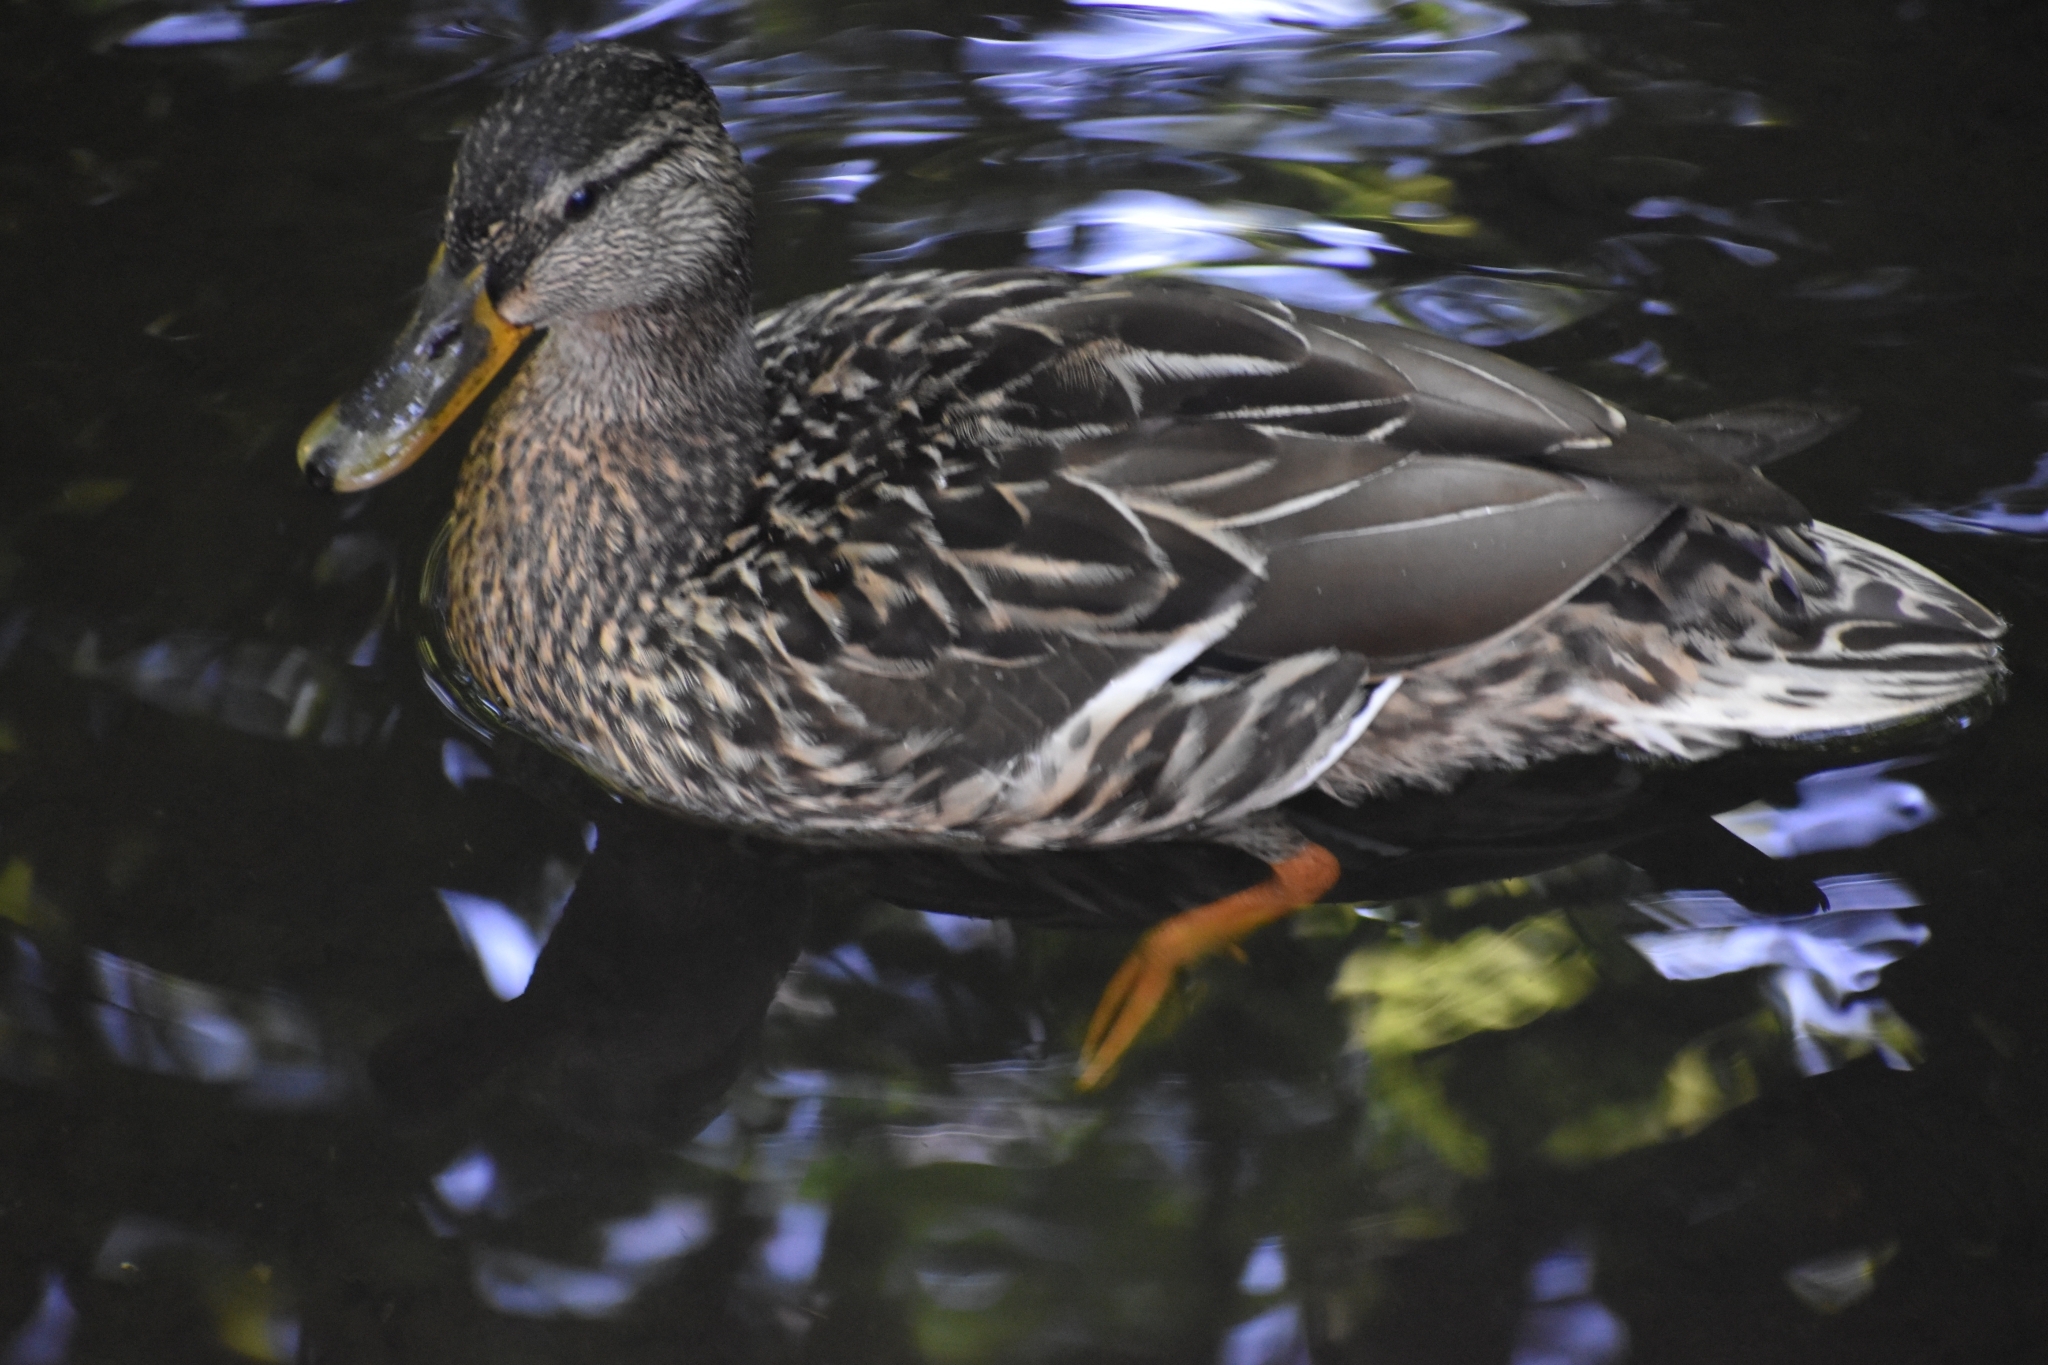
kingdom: Animalia
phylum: Chordata
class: Aves
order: Anseriformes
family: Anatidae
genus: Anas
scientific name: Anas platyrhynchos
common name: Mallard
